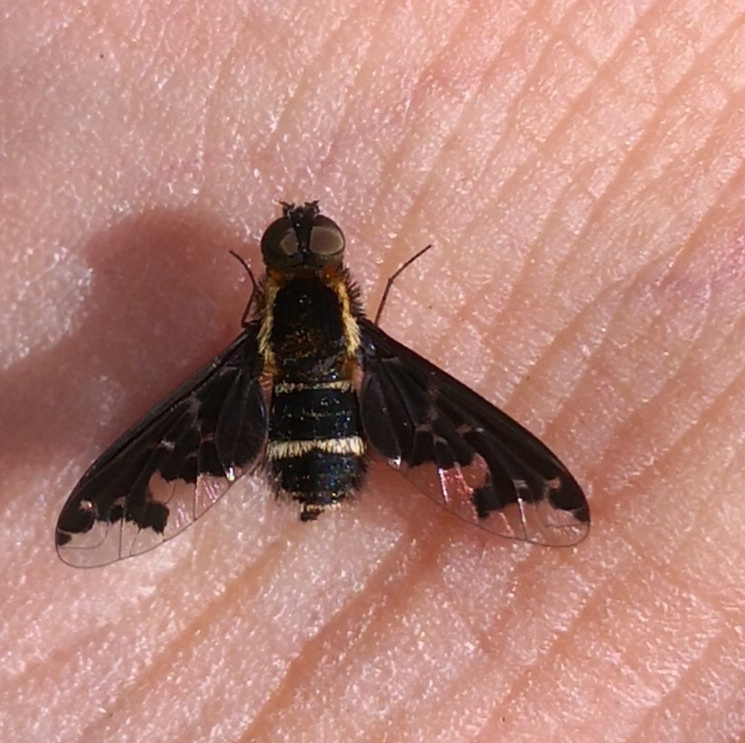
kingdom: Animalia
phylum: Arthropoda
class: Insecta
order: Diptera
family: Bombyliidae
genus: Hemipenthes
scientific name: Hemipenthes maura
